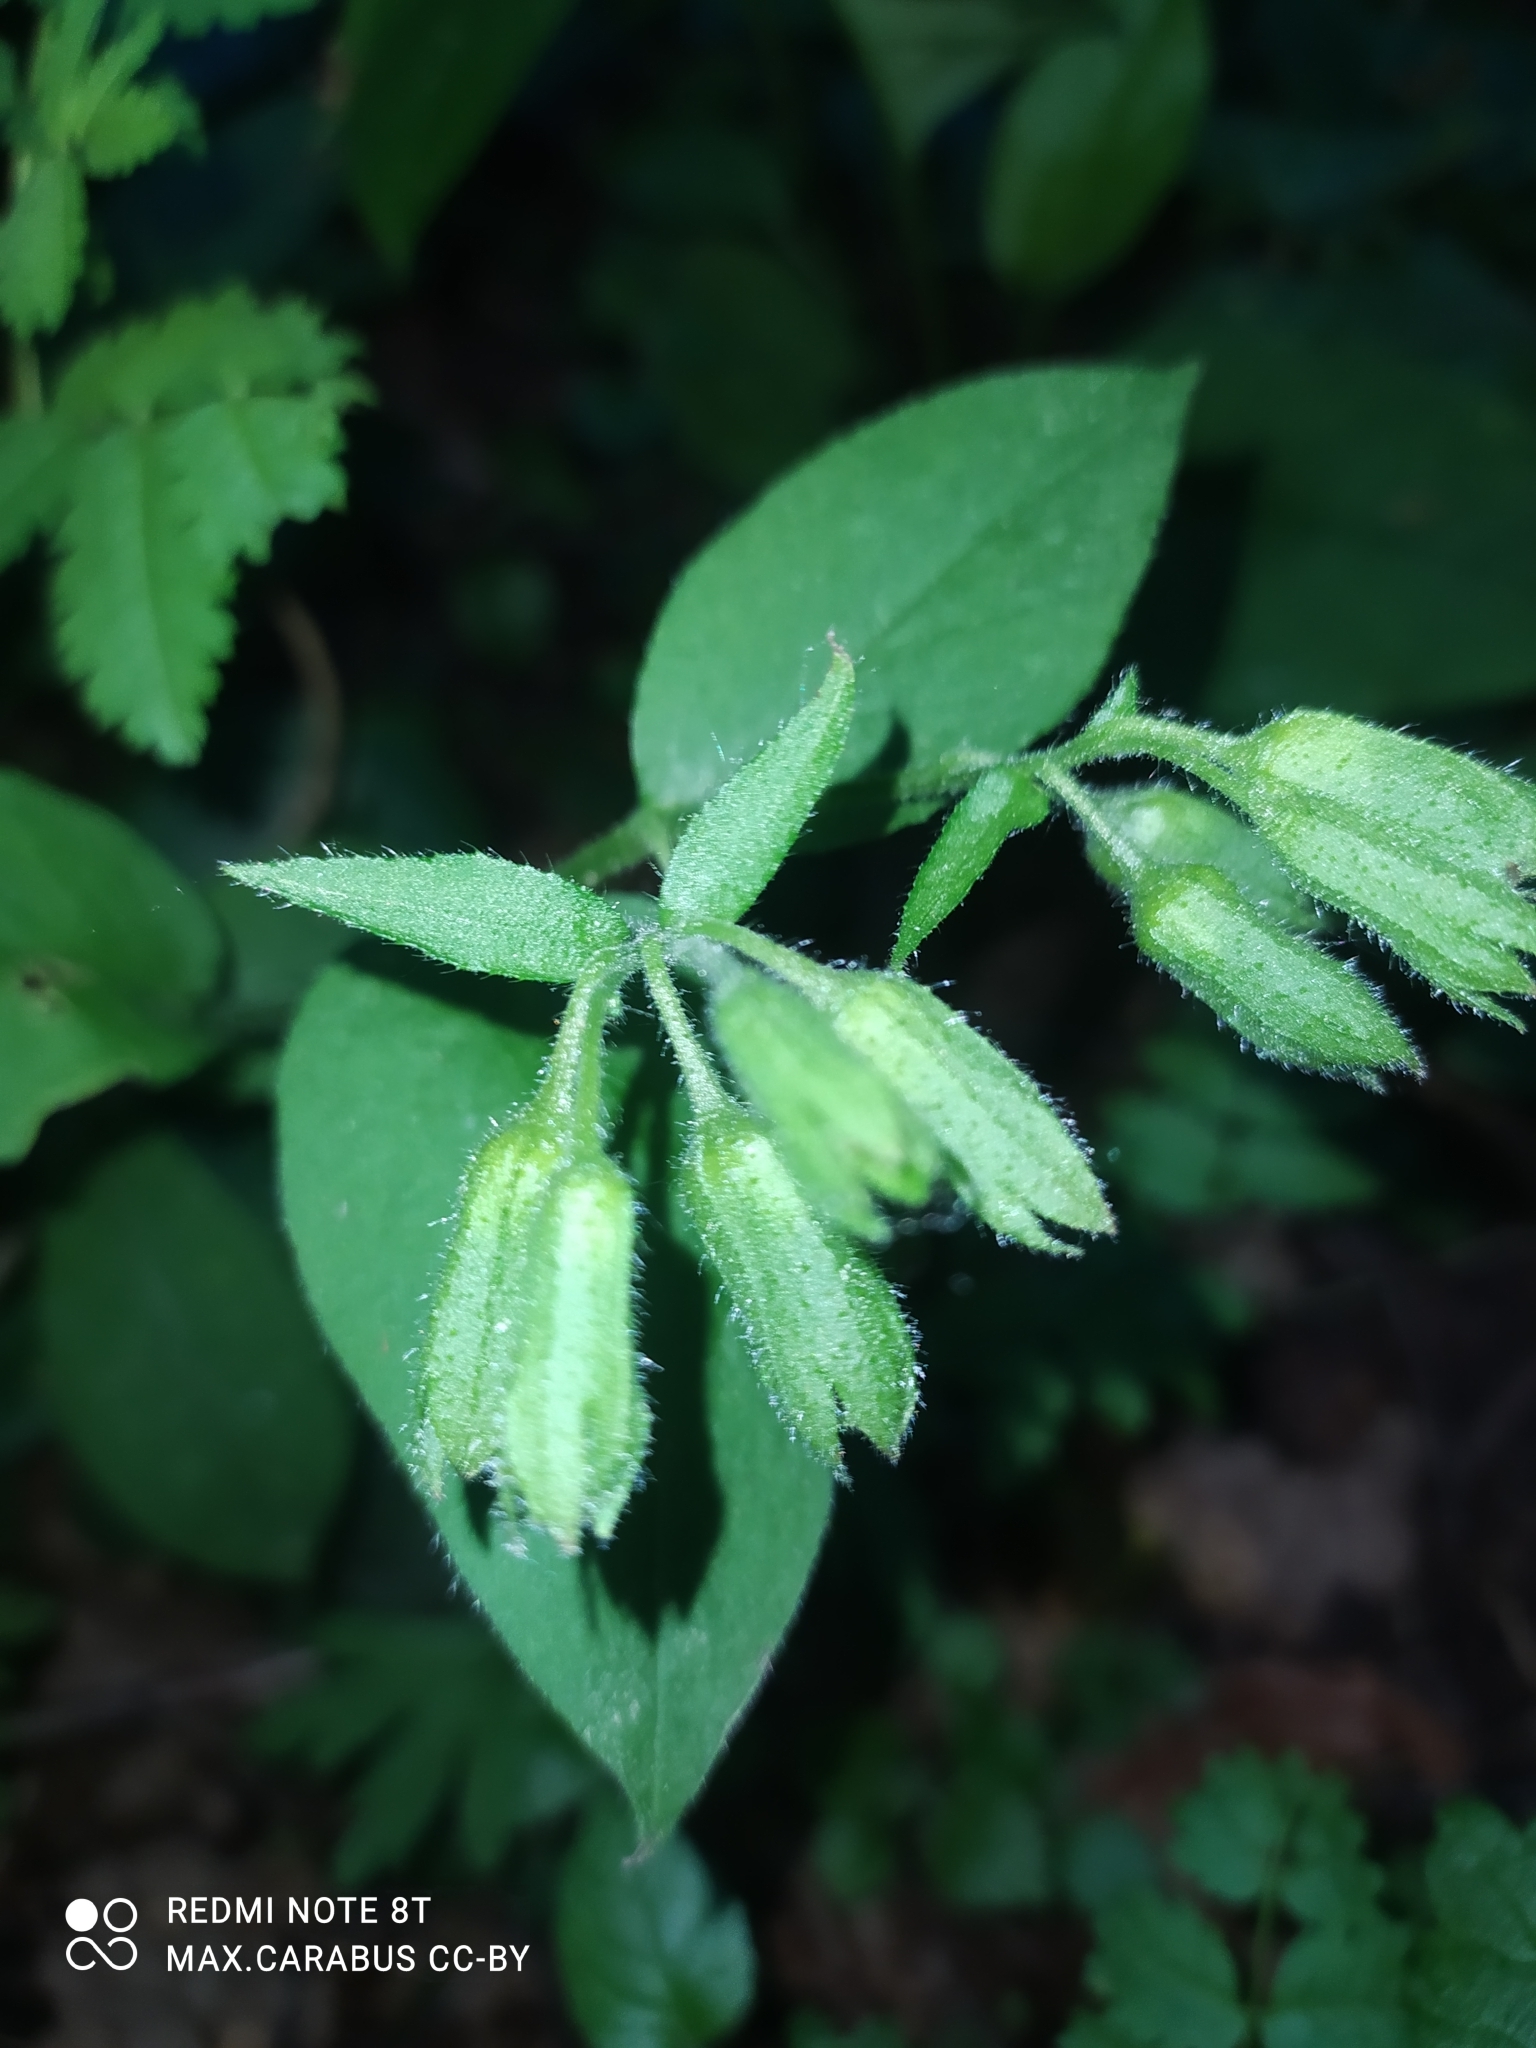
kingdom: Plantae
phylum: Tracheophyta
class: Magnoliopsida
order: Boraginales
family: Boraginaceae
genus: Pulmonaria
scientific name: Pulmonaria obscura
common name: Suffolk lungwort
